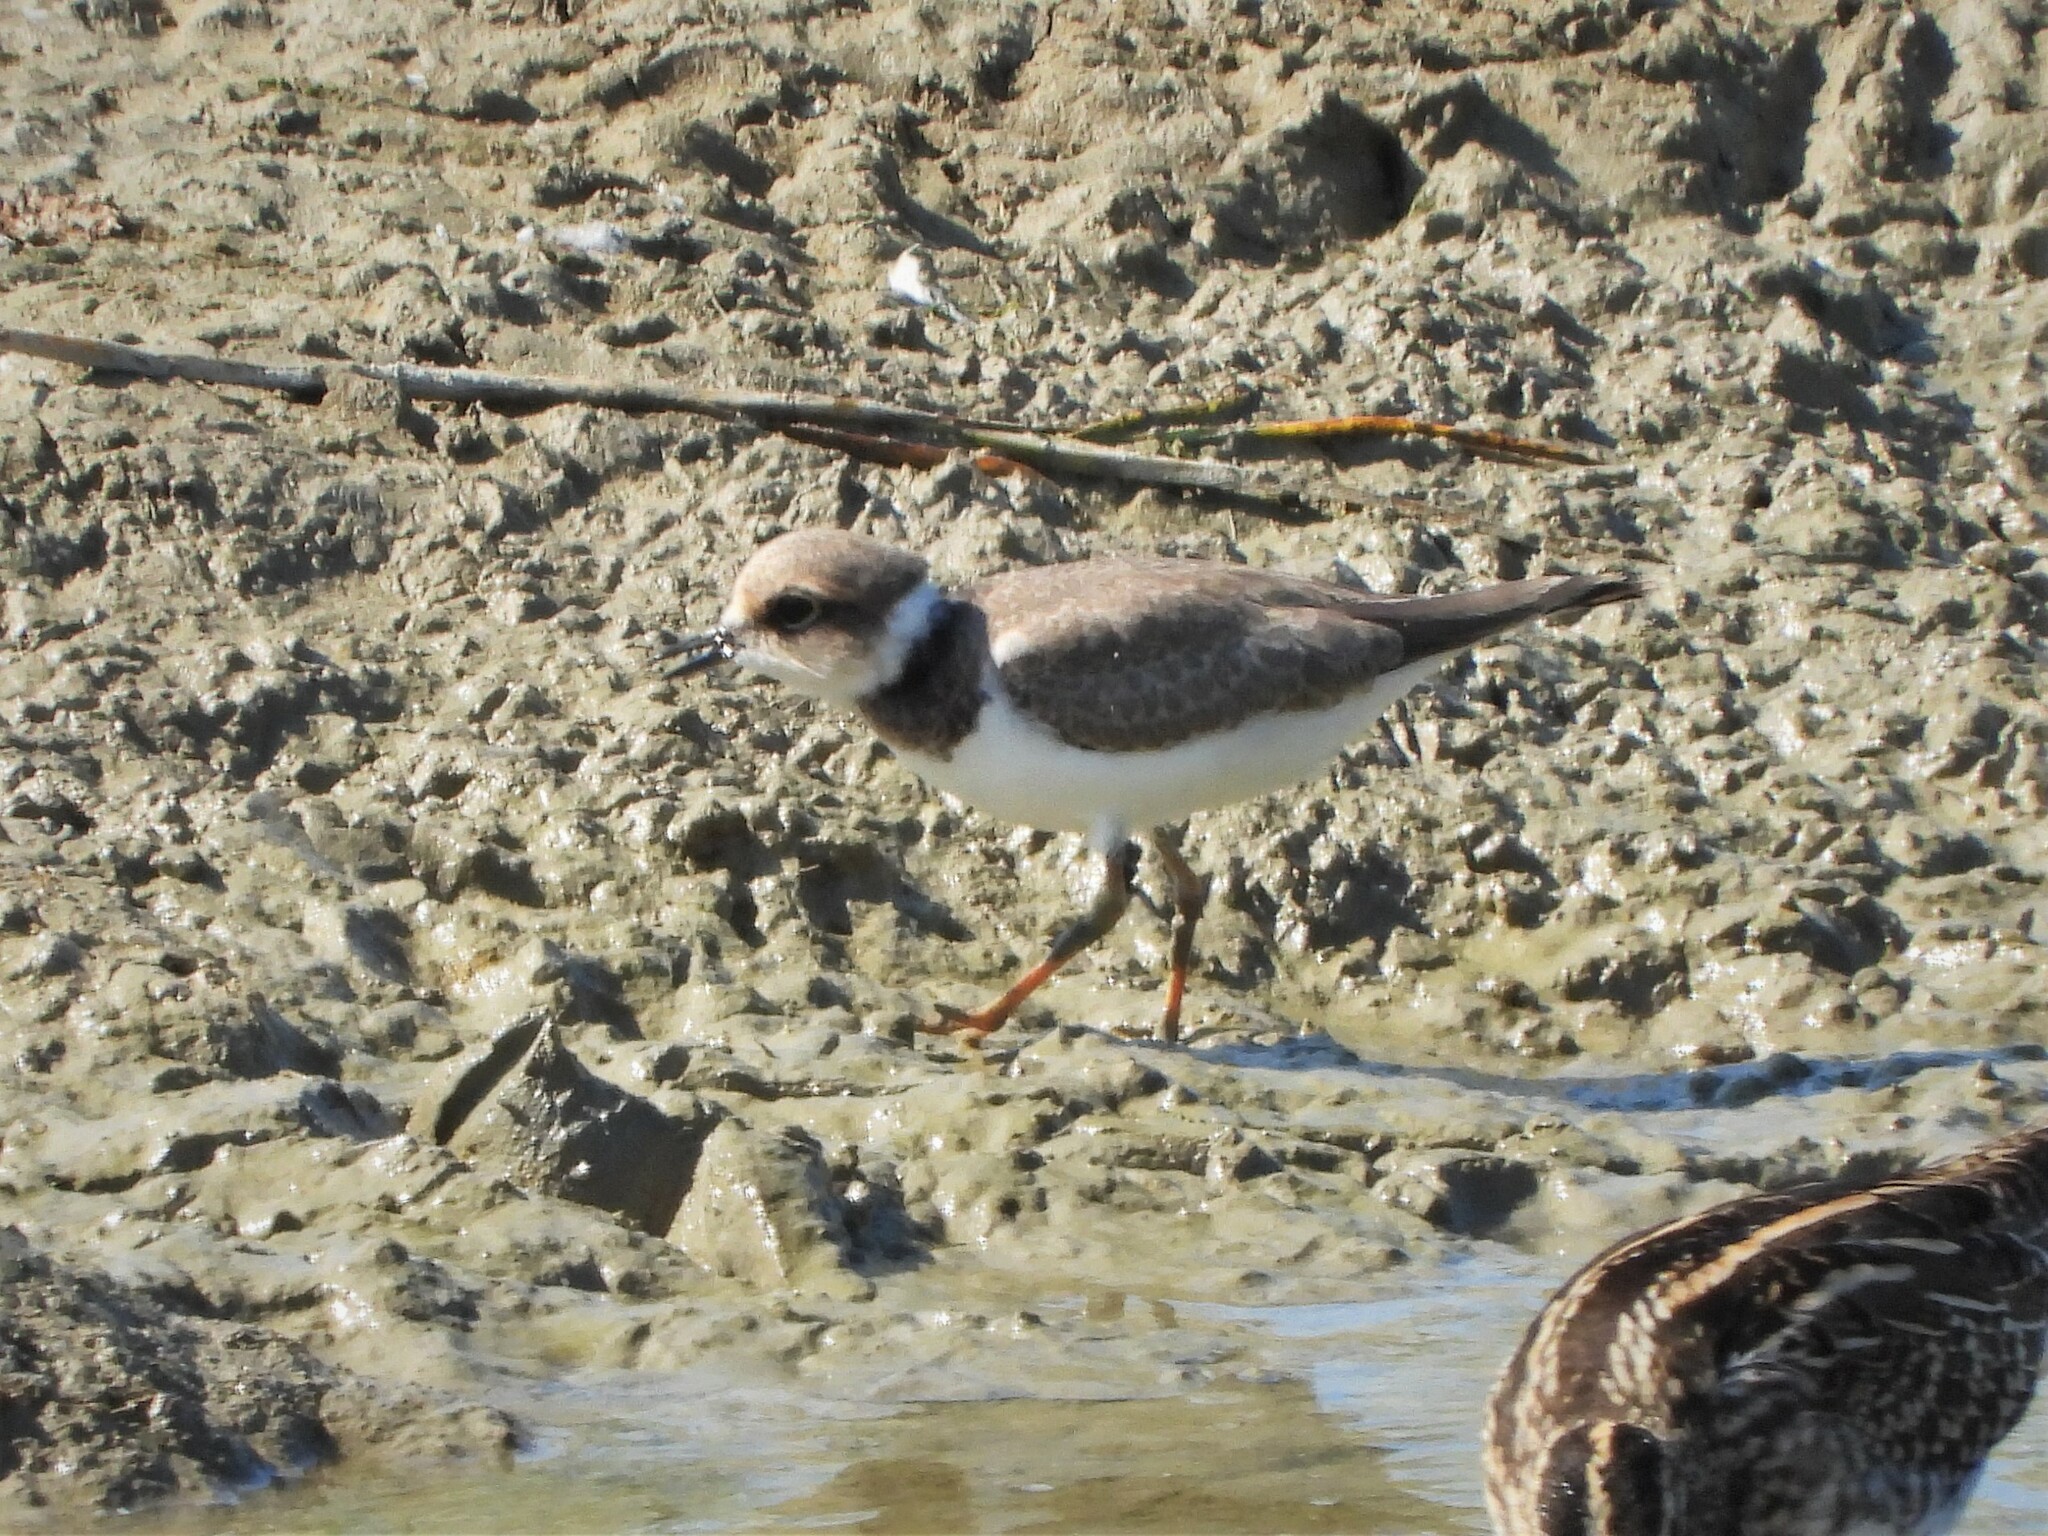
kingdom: Animalia
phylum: Chordata
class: Aves
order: Charadriiformes
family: Charadriidae
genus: Charadrius
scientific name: Charadrius dubius
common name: Little ringed plover
